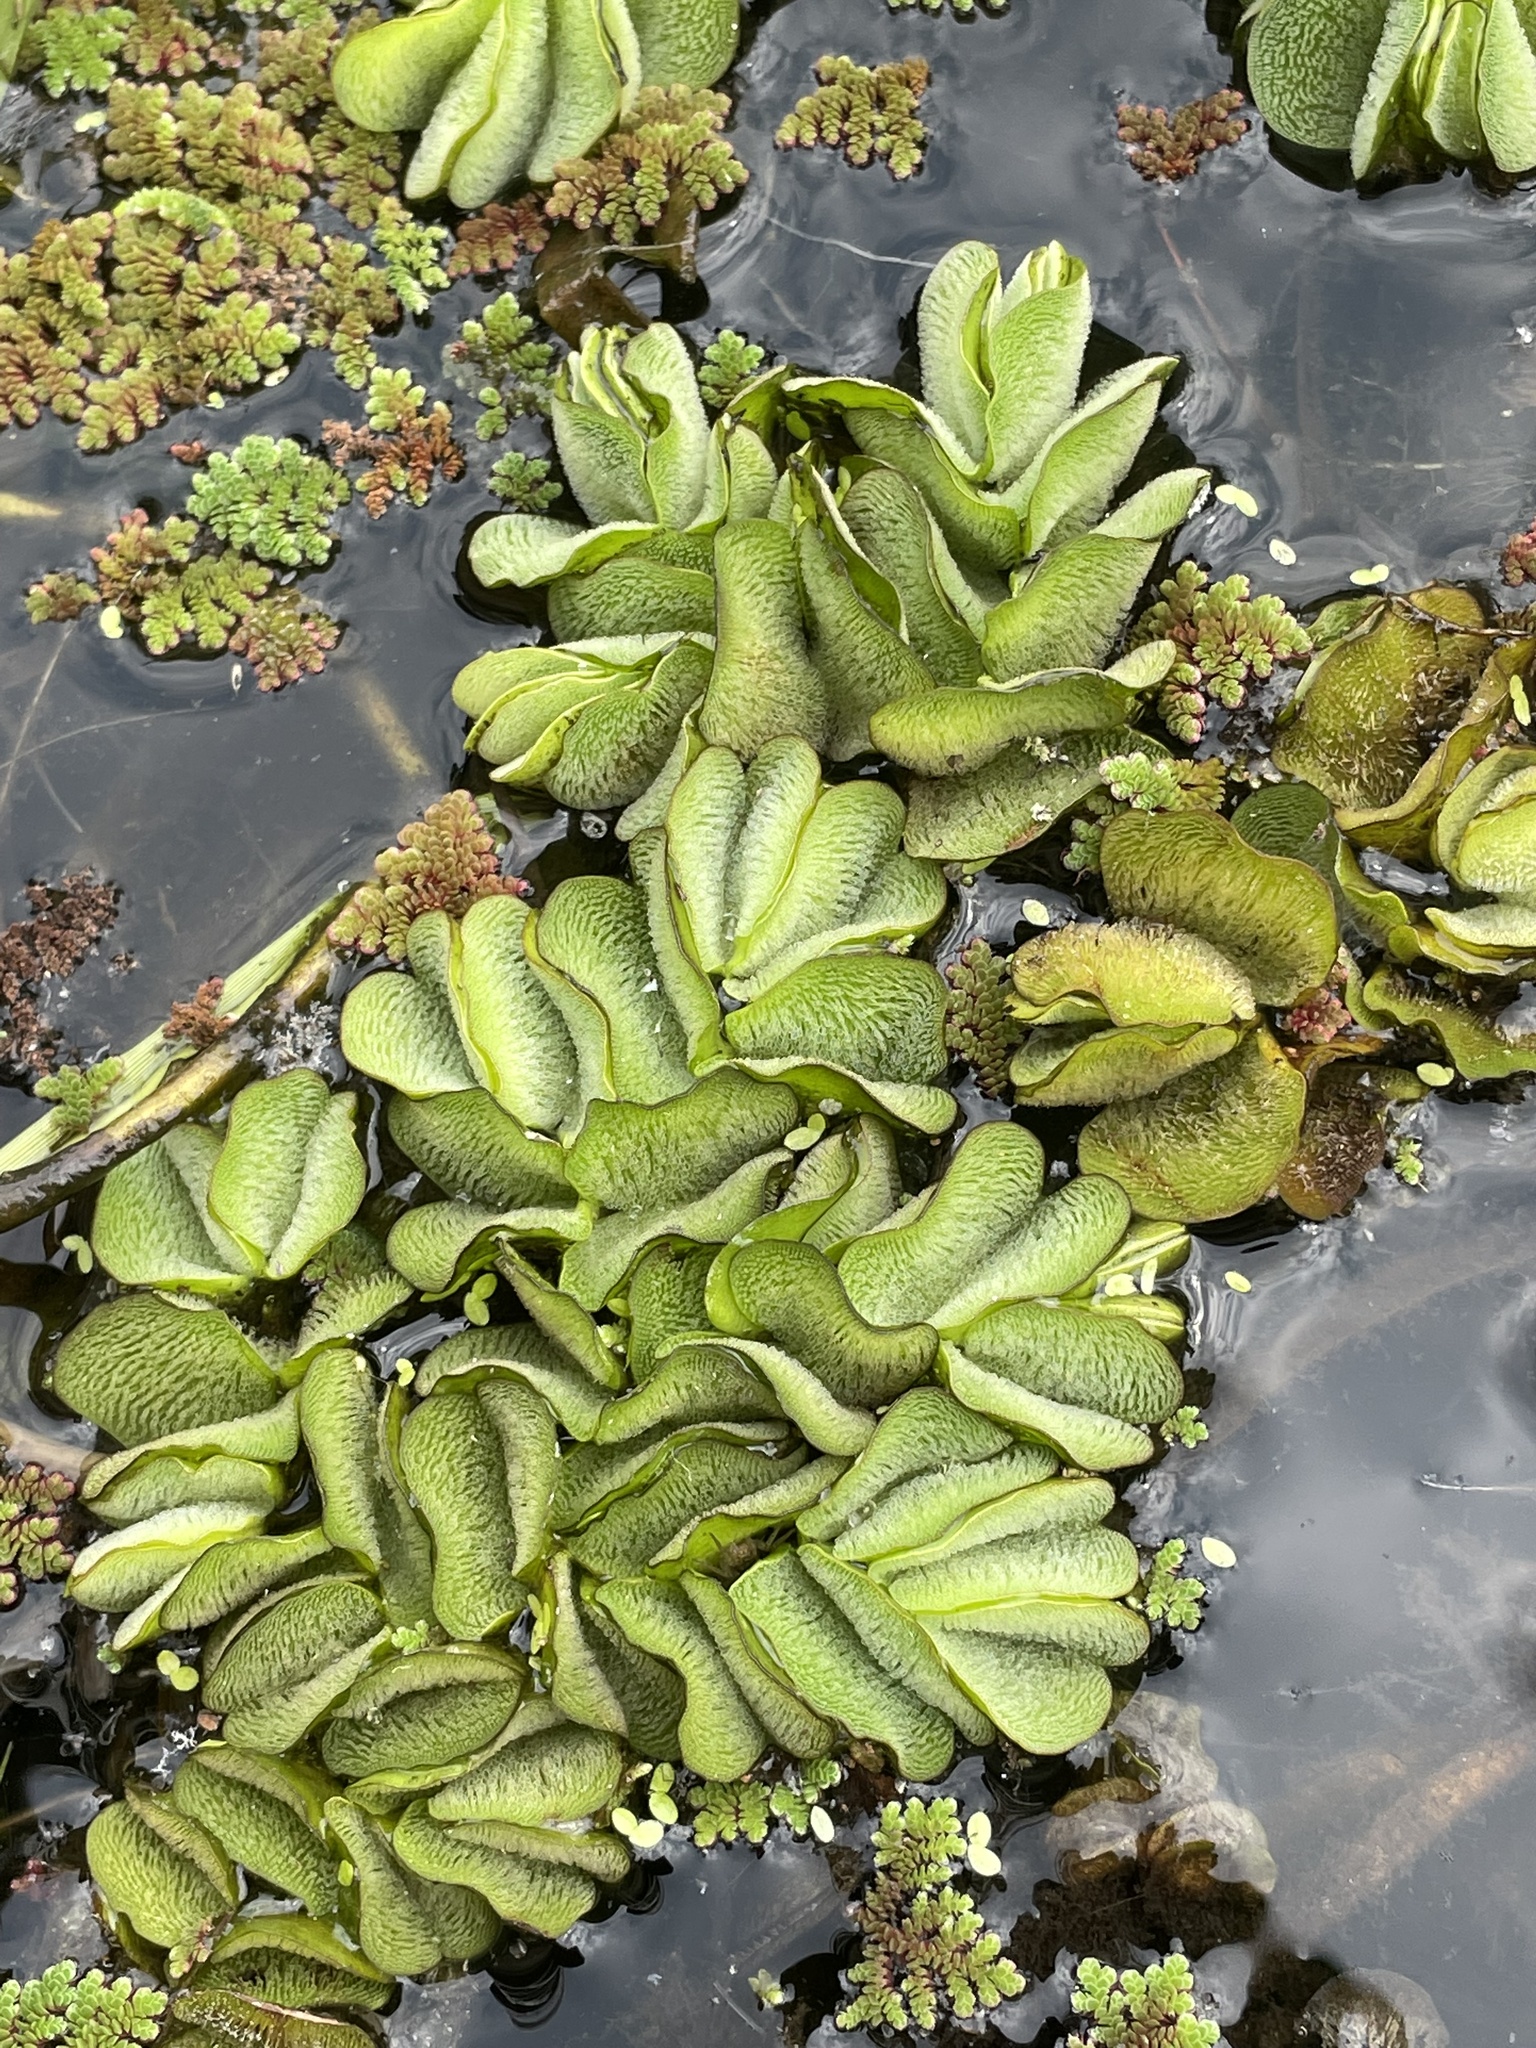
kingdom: Plantae
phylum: Tracheophyta
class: Polypodiopsida
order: Salviniales
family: Salviniaceae
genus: Salvinia
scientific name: Salvinia molesta
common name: Kariba weed
